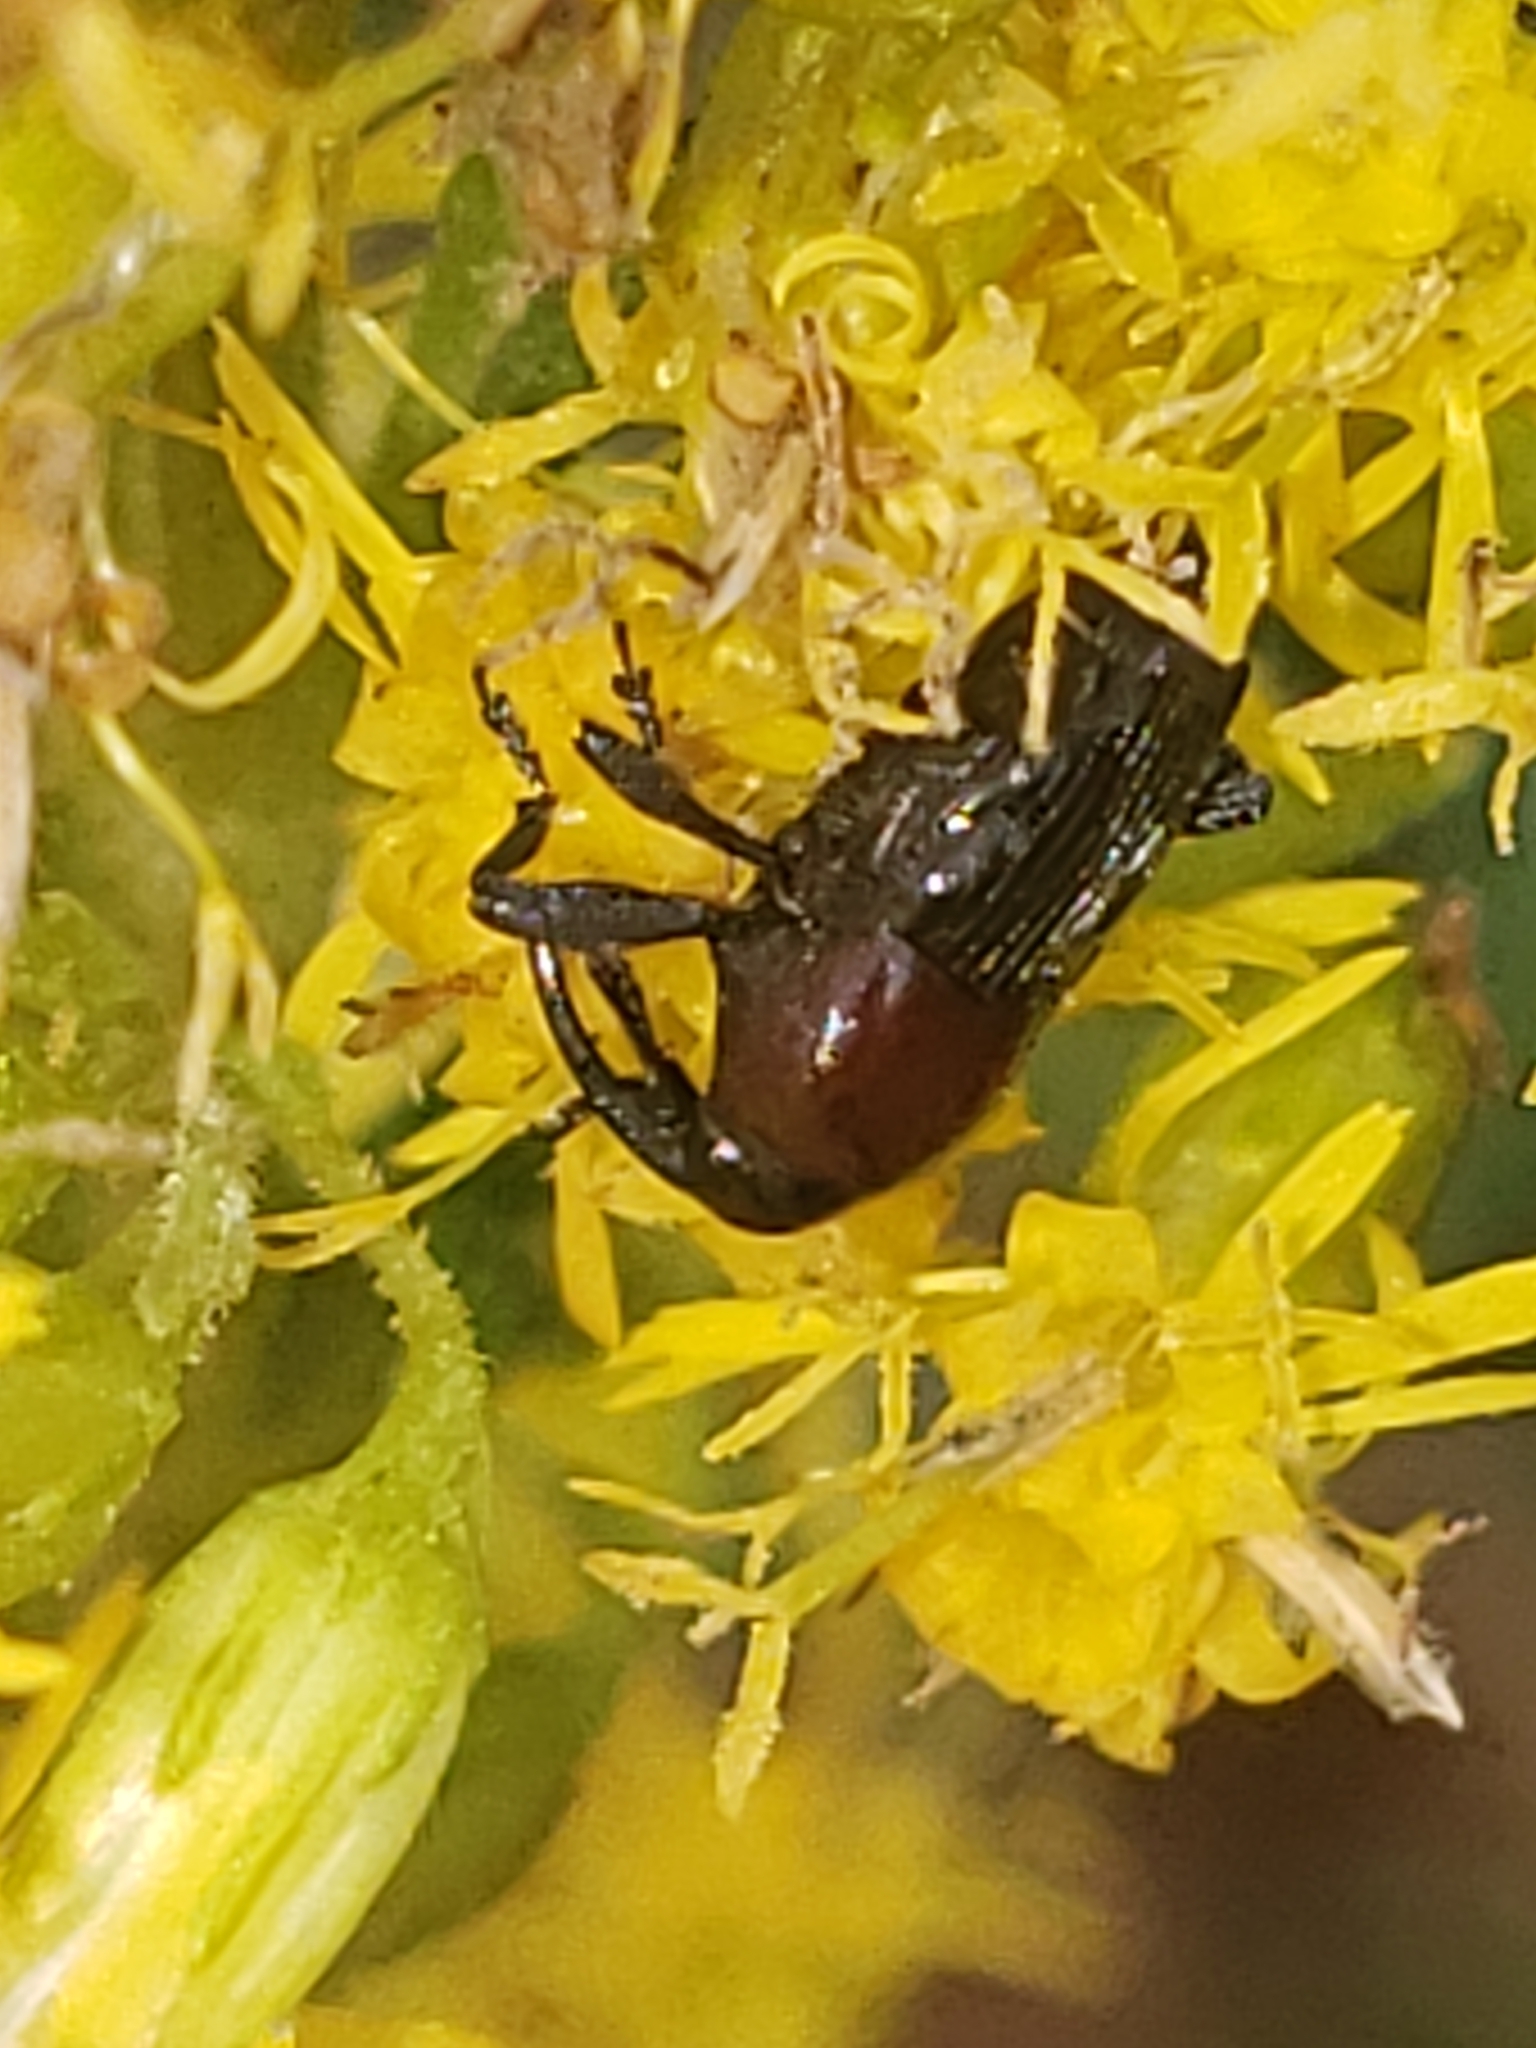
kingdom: Animalia
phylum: Arthropoda
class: Insecta
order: Coleoptera
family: Curculionidae
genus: Madarellus
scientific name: Madarellus undulatus
